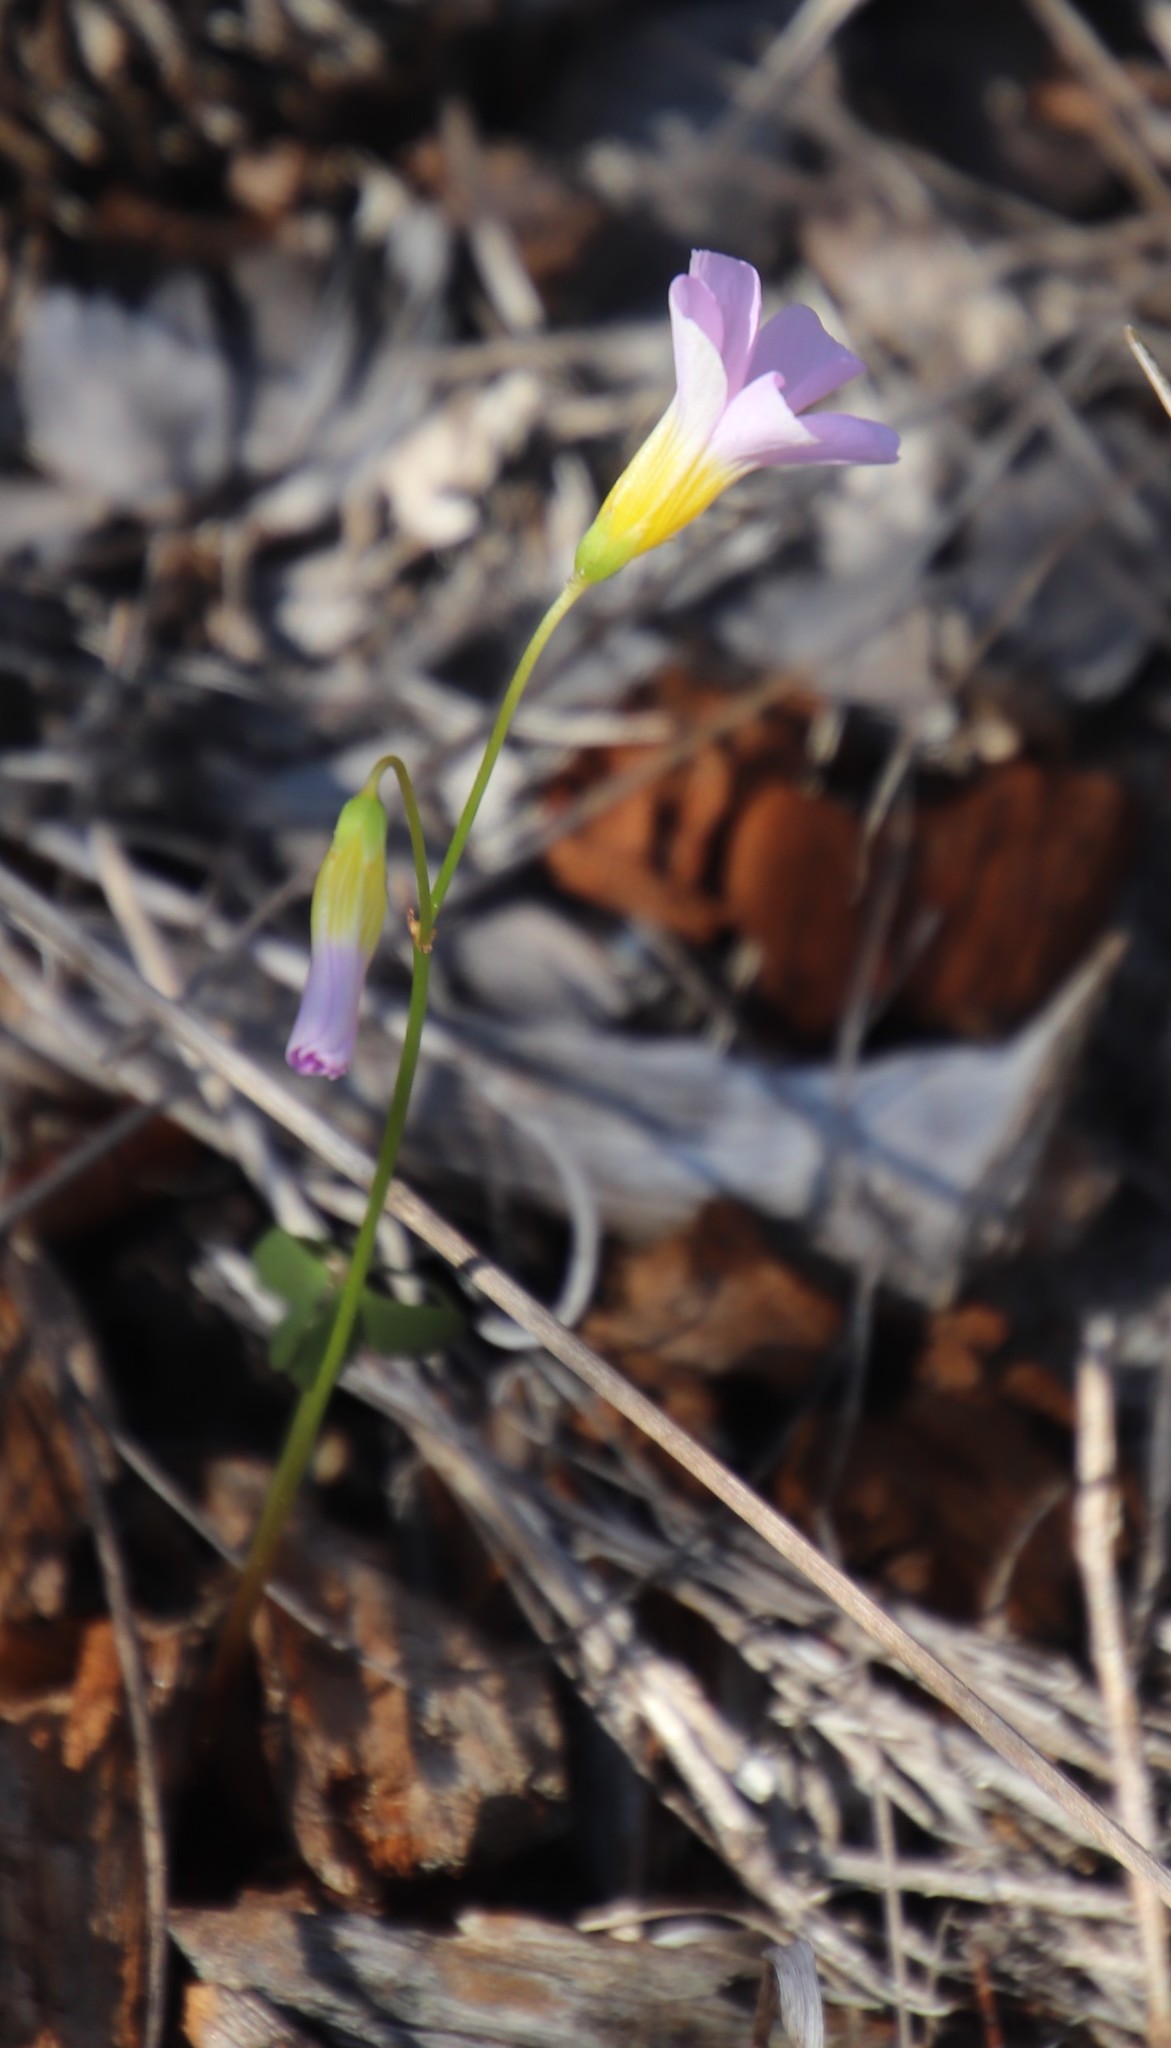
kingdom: Plantae
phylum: Tracheophyta
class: Magnoliopsida
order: Oxalidales
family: Oxalidaceae
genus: Oxalis
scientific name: Oxalis caprina
